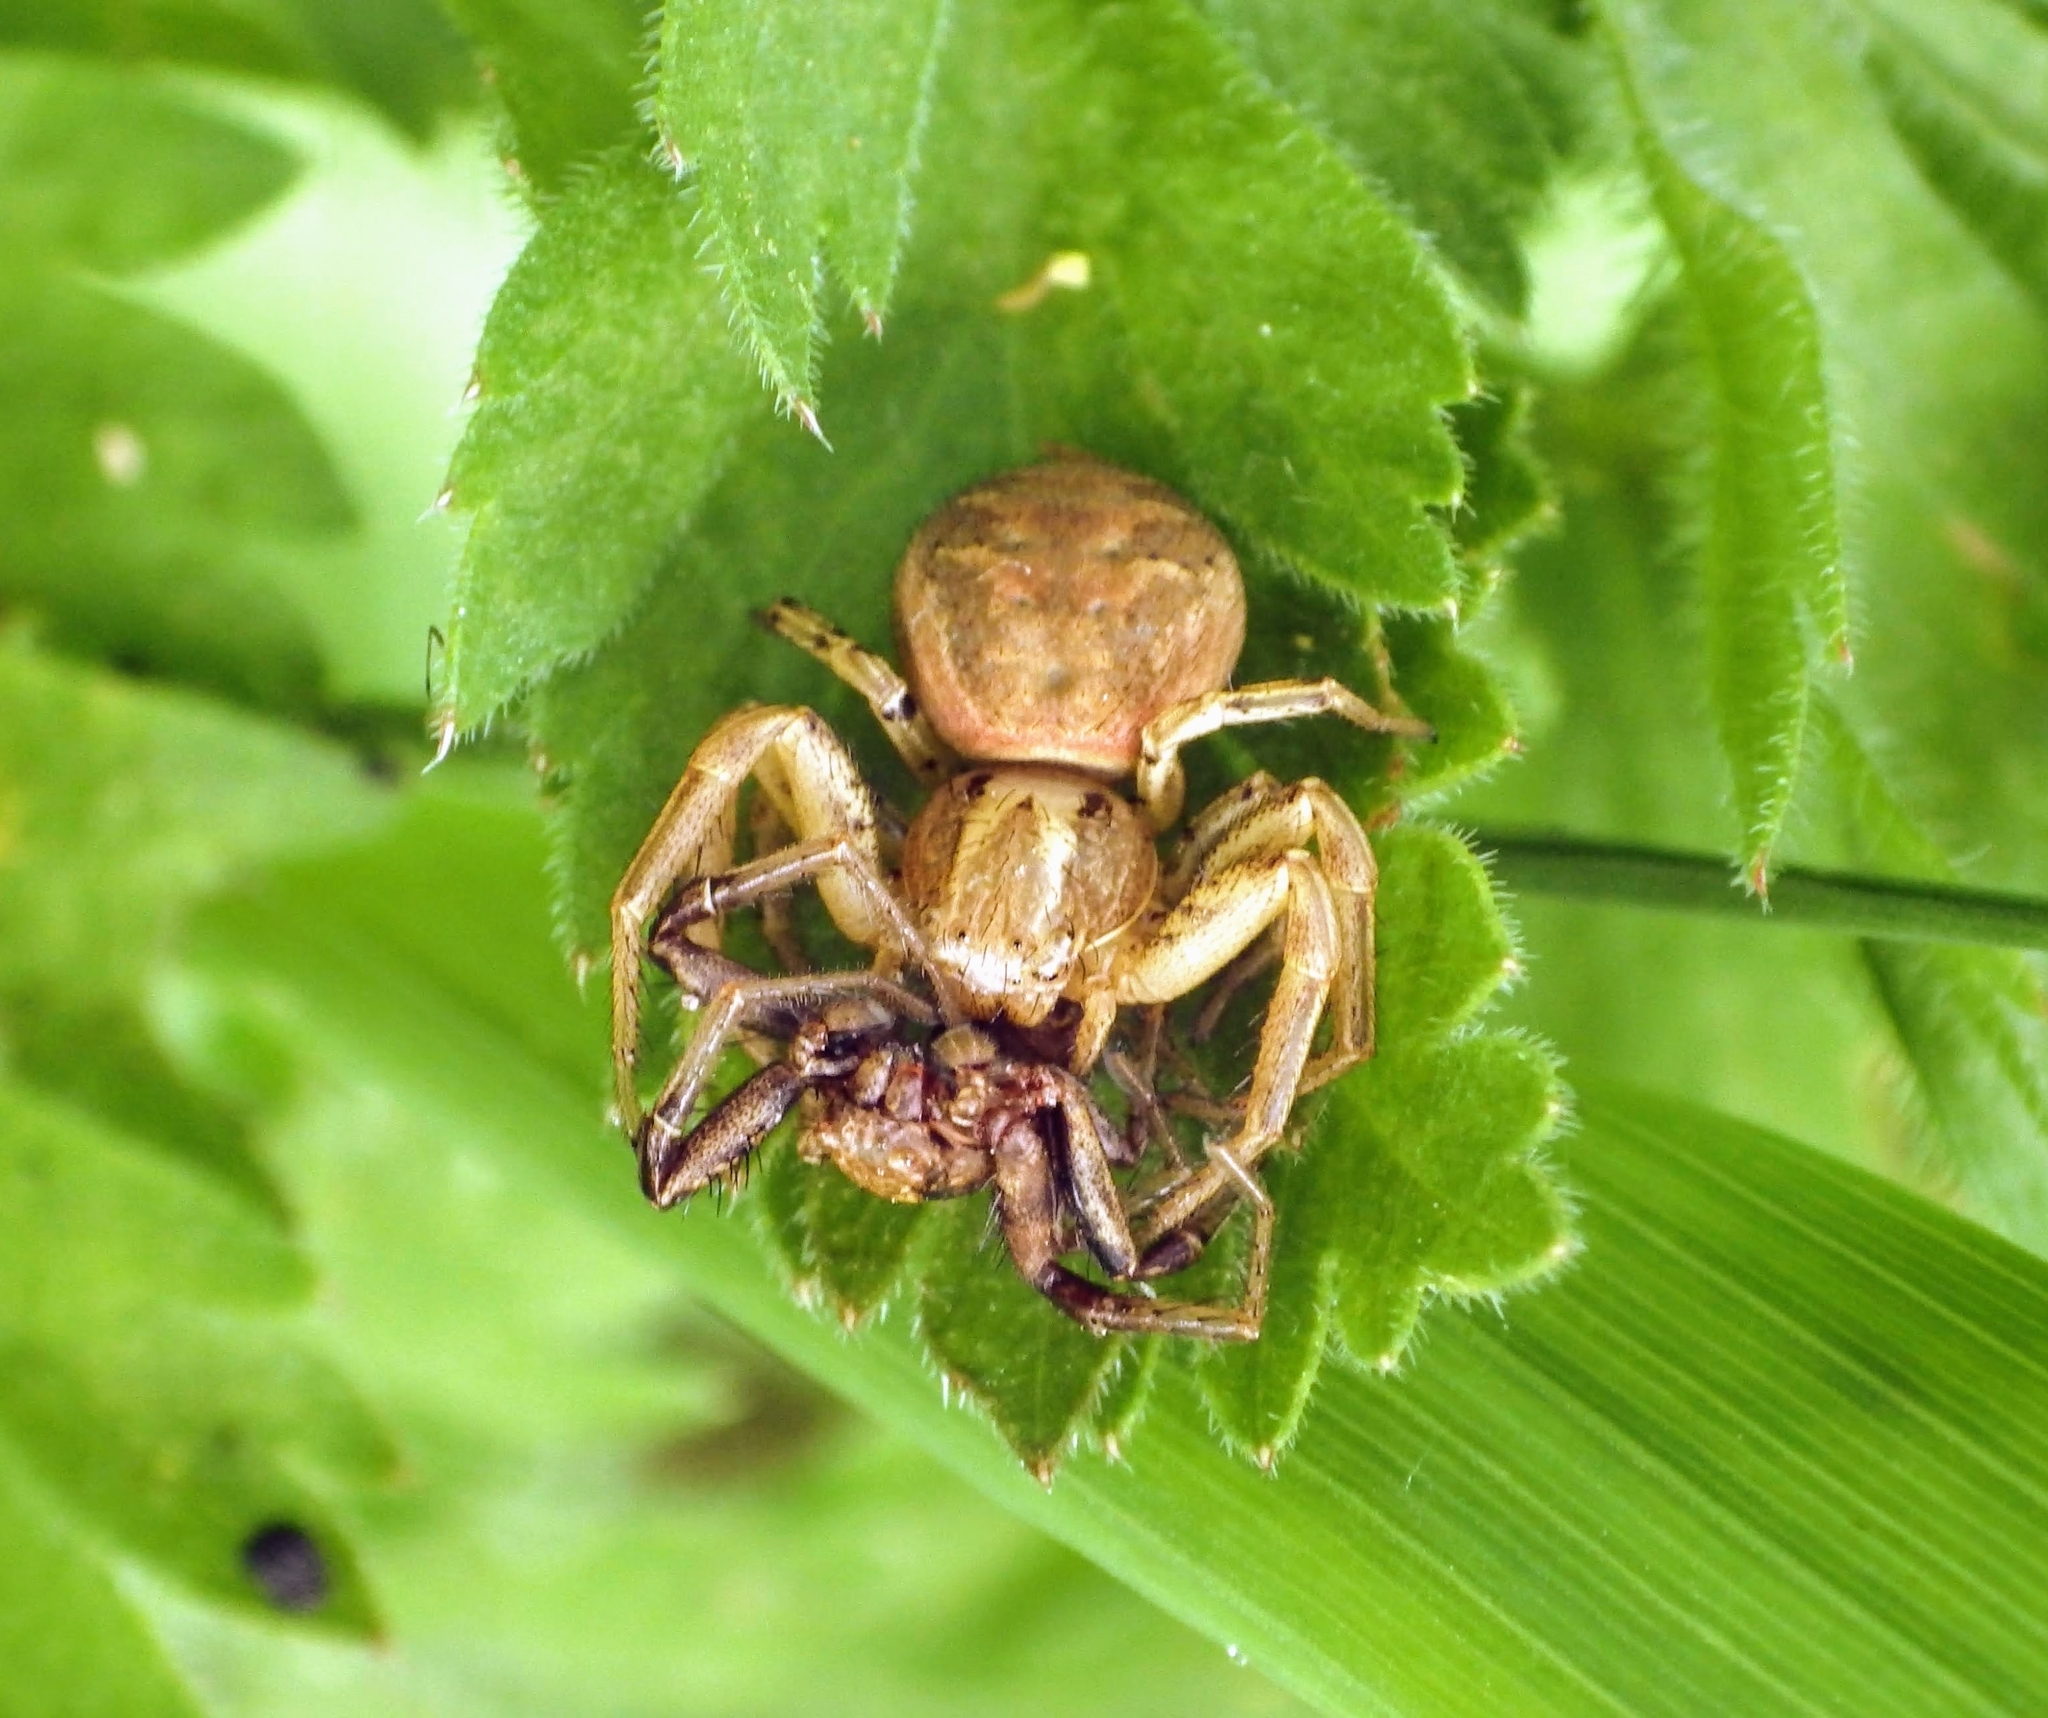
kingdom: Animalia
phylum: Arthropoda
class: Arachnida
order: Araneae
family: Thomisidae
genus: Xysticus
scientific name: Xysticus
